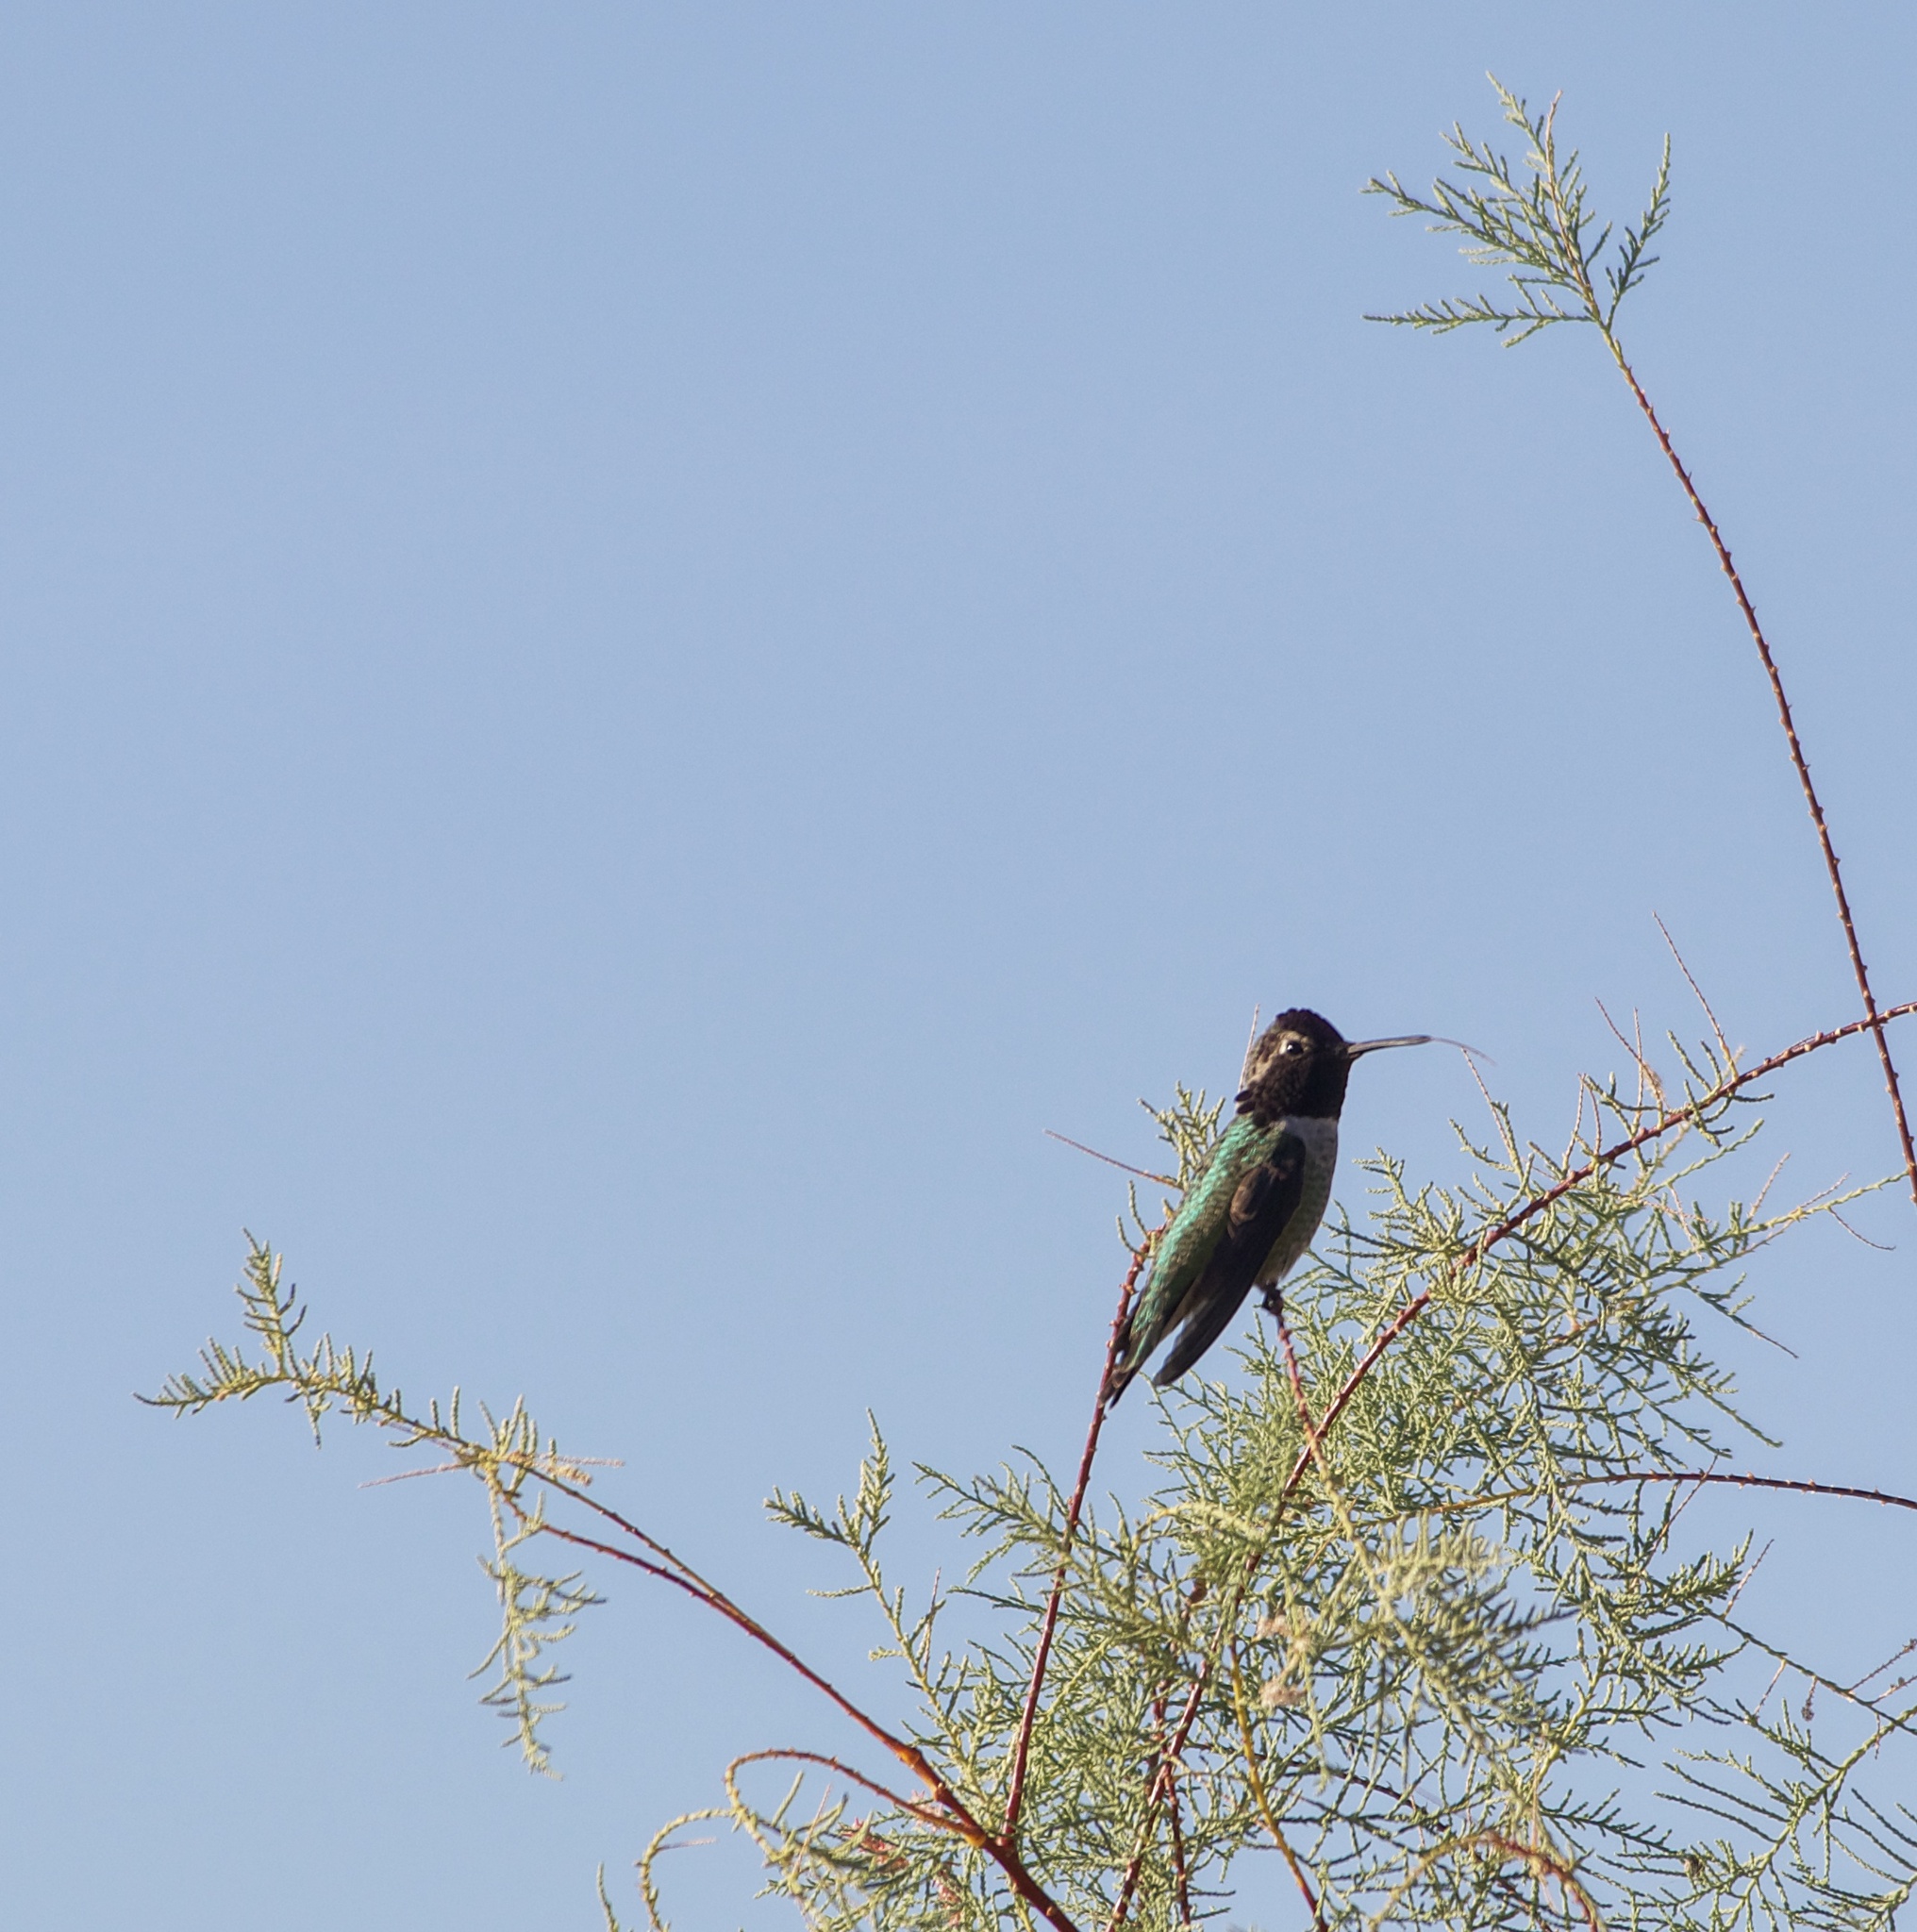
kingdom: Animalia
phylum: Chordata
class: Aves
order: Apodiformes
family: Trochilidae
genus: Calypte
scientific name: Calypte anna
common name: Anna's hummingbird
